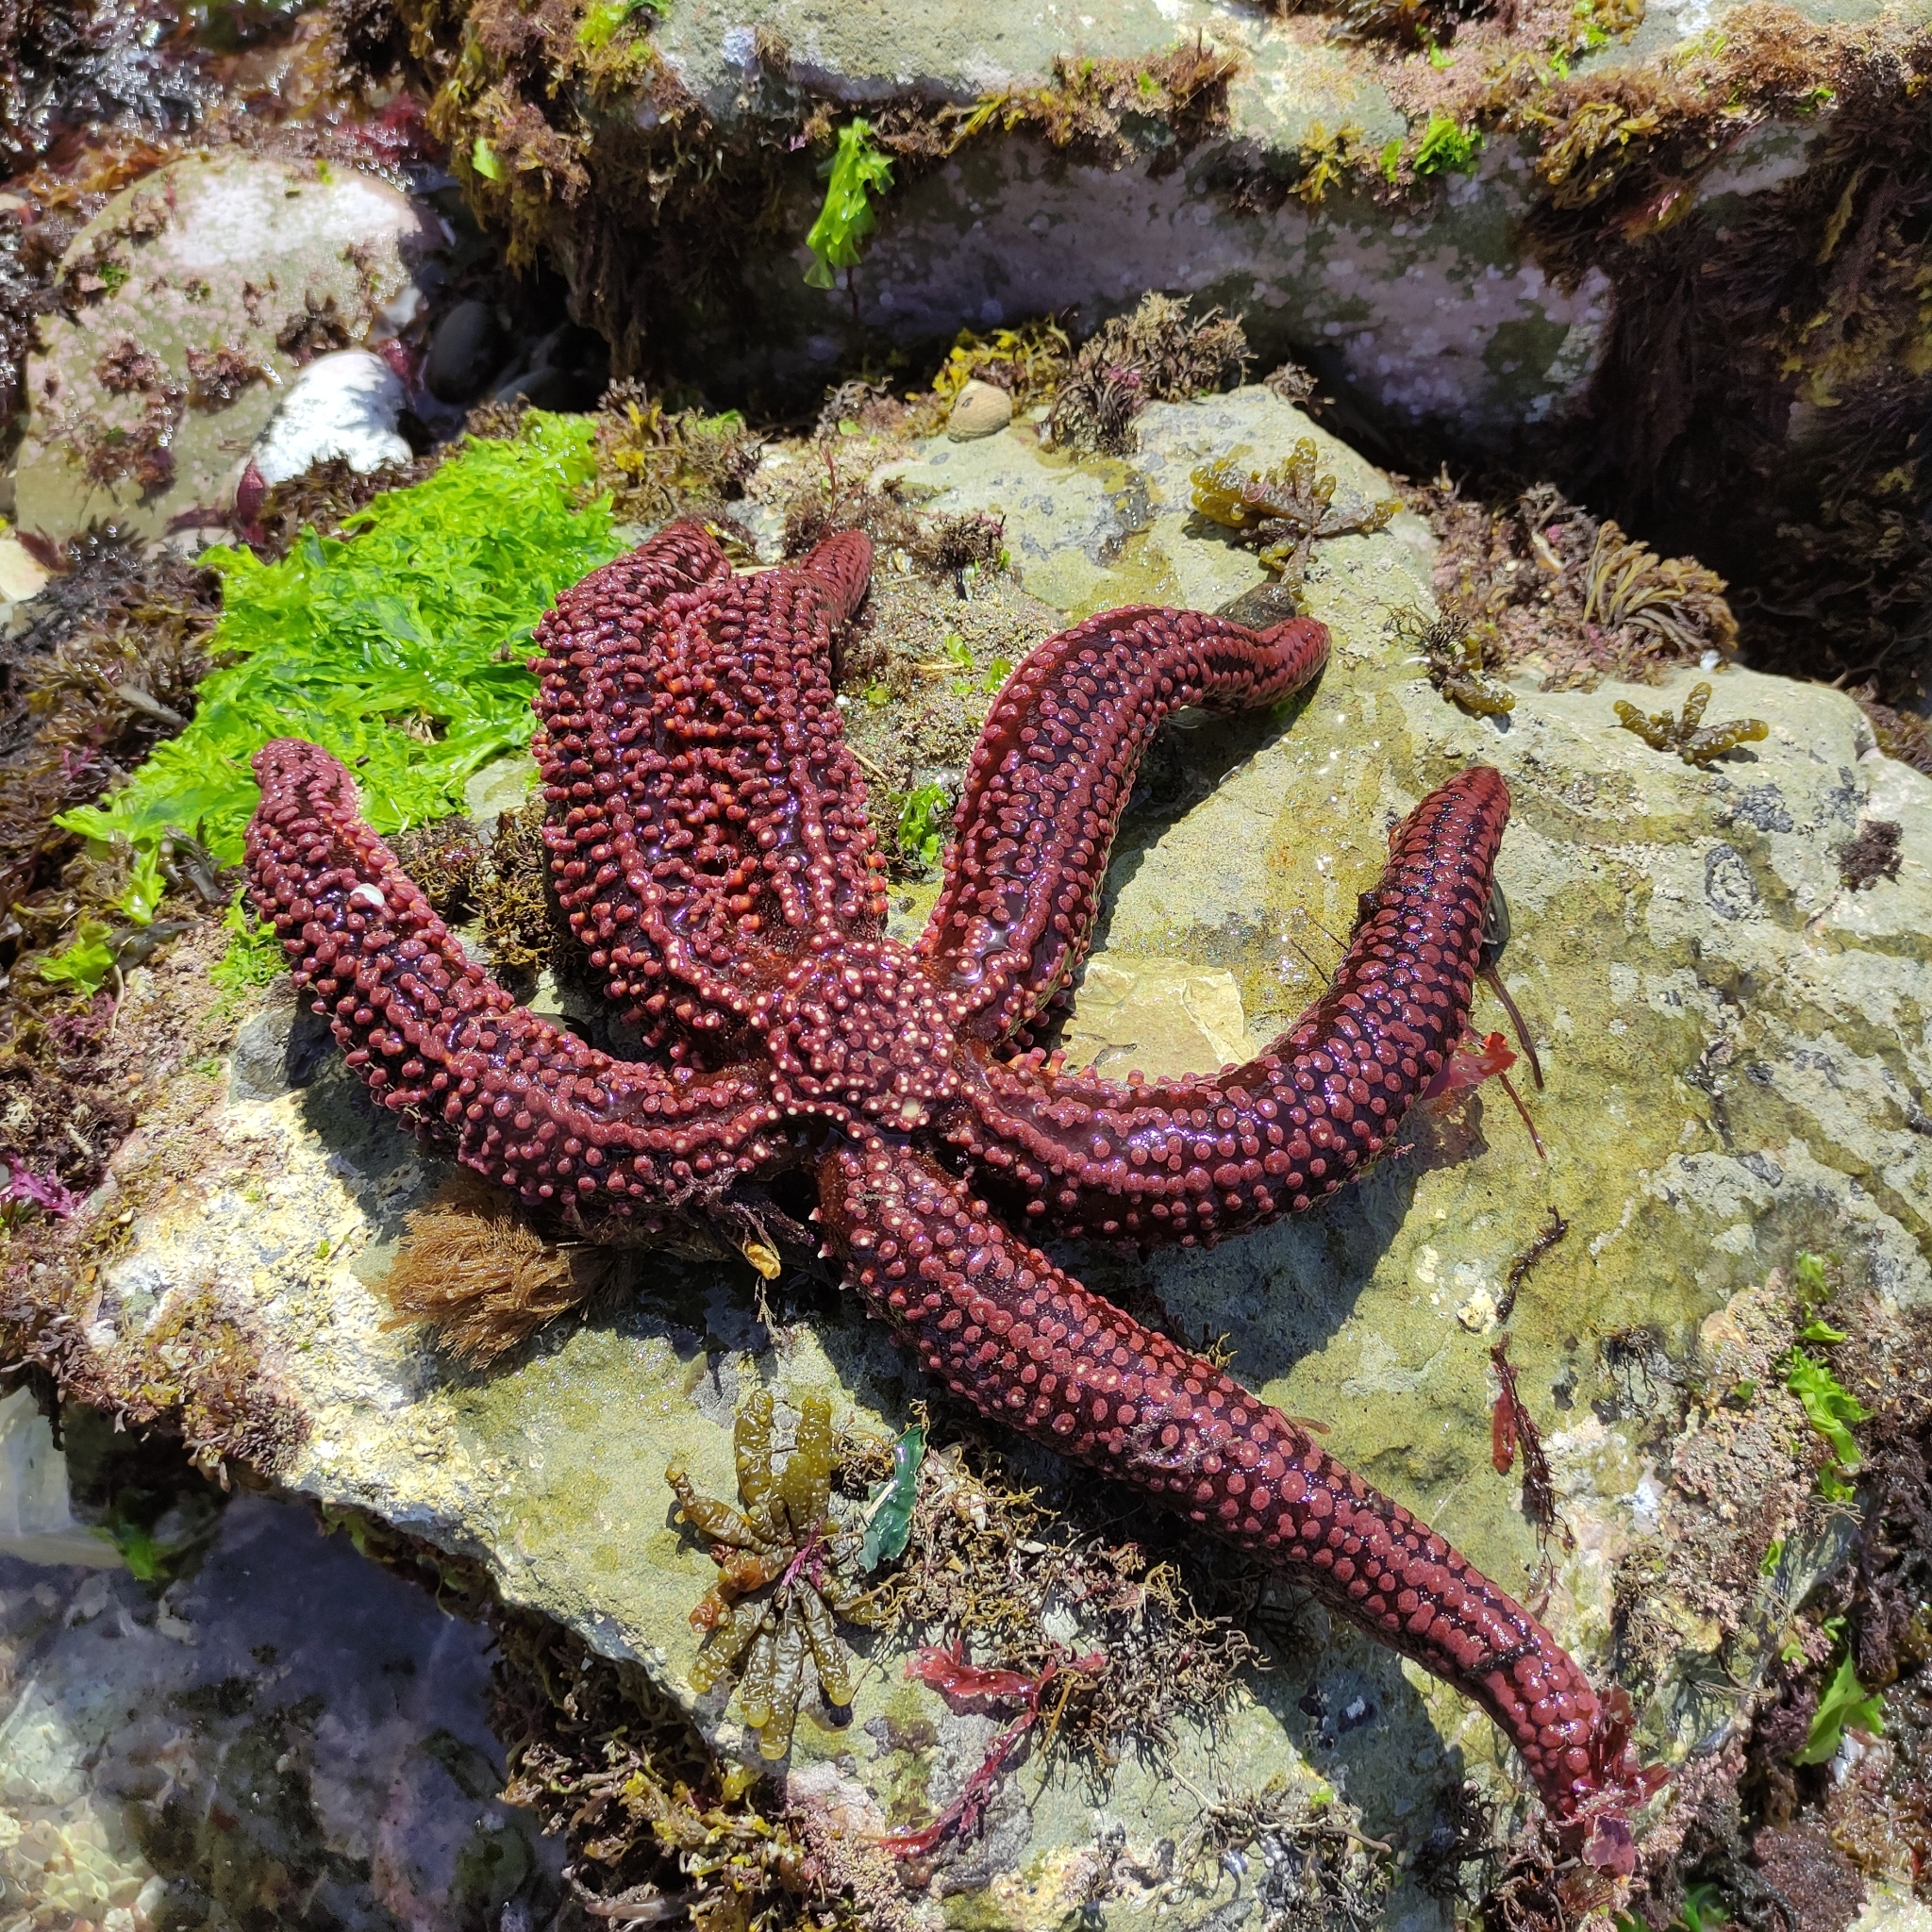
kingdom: Animalia
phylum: Echinodermata
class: Asteroidea
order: Forcipulatida
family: Asteriidae
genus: Astrostole
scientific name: Astrostole scabra
